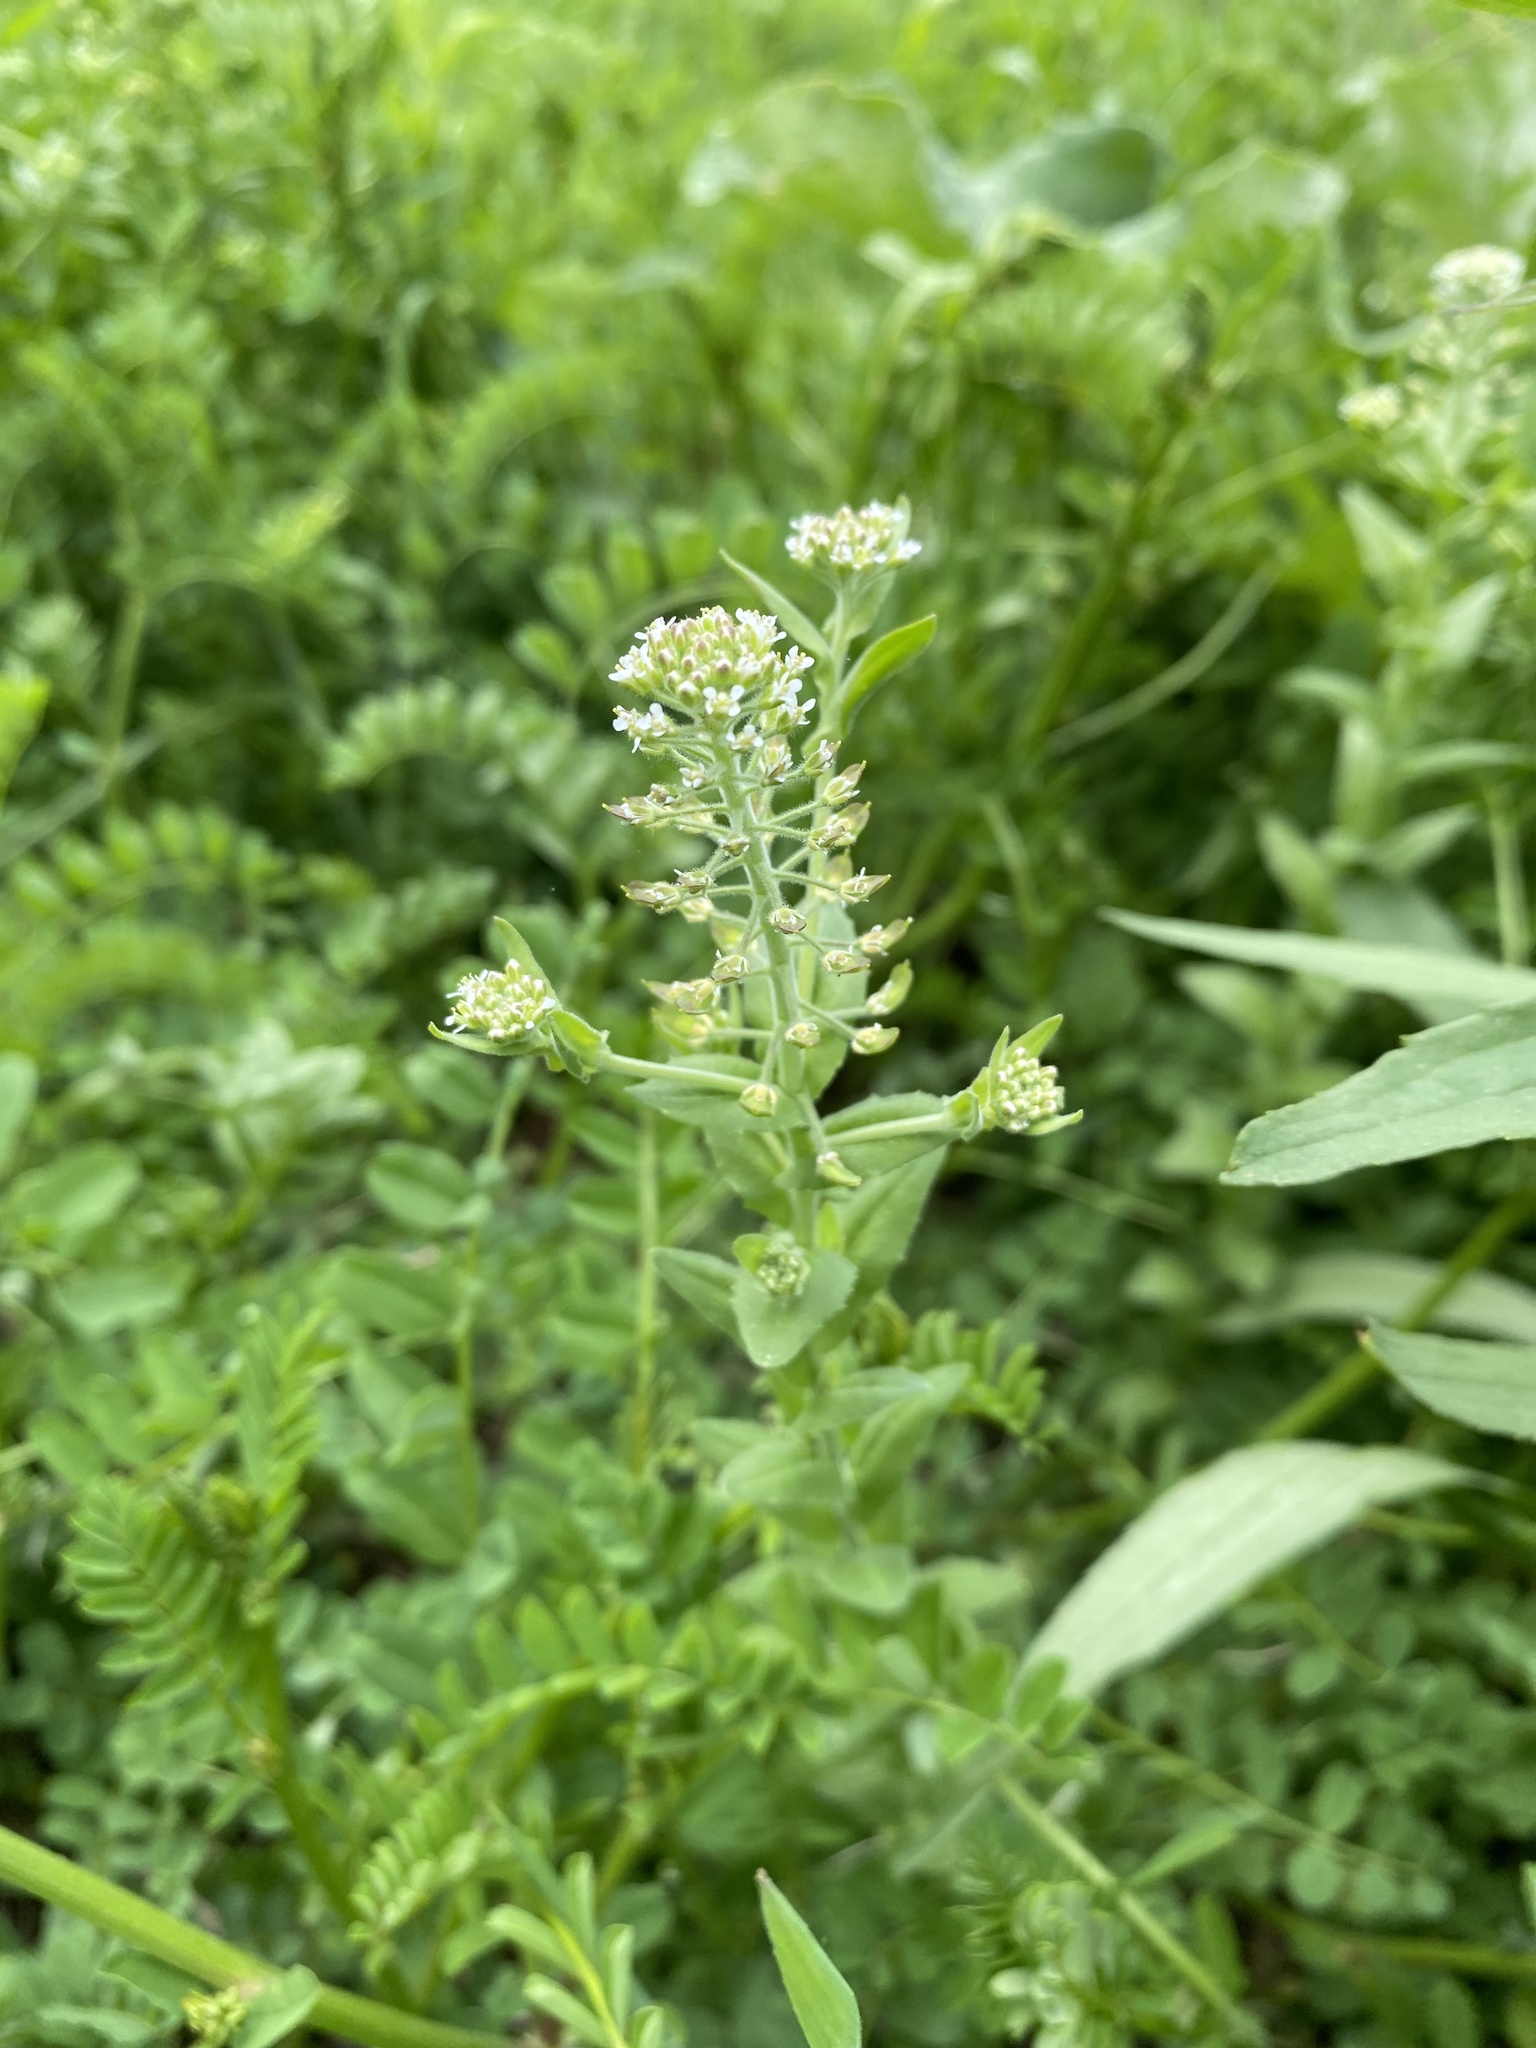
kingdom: Plantae
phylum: Tracheophyta
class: Magnoliopsida
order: Brassicales
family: Brassicaceae
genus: Lepidium
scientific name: Lepidium campestre
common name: Field pepperwort
